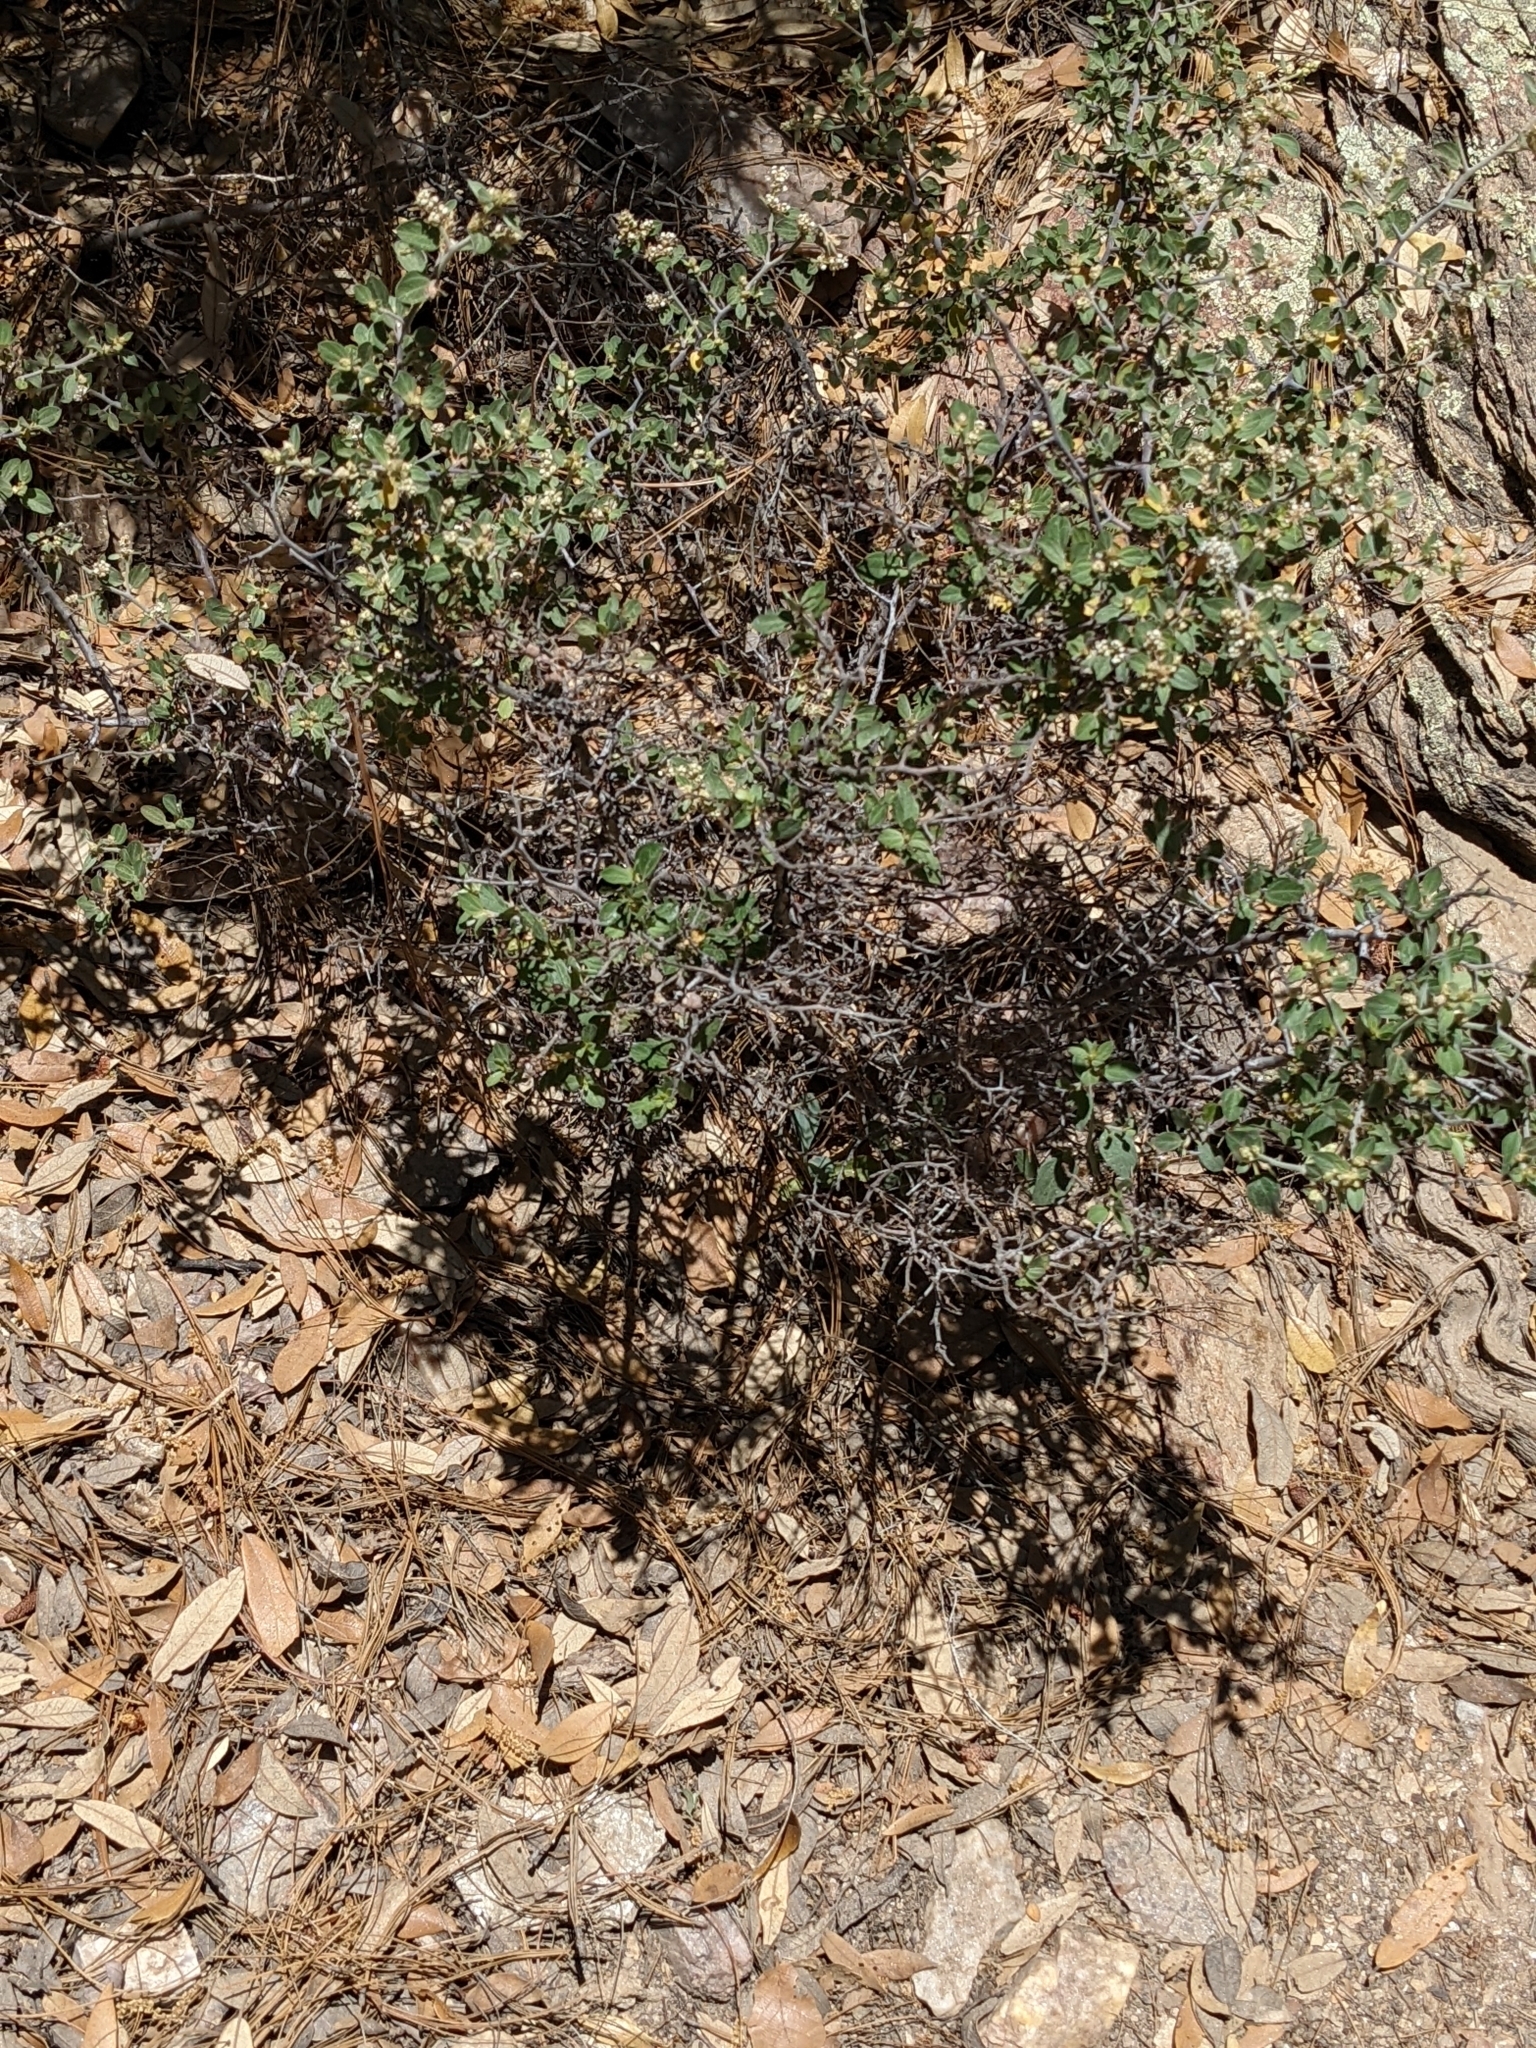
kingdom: Plantae
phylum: Tracheophyta
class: Magnoliopsida
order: Rosales
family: Rhamnaceae
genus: Ceanothus
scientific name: Ceanothus fendleri
